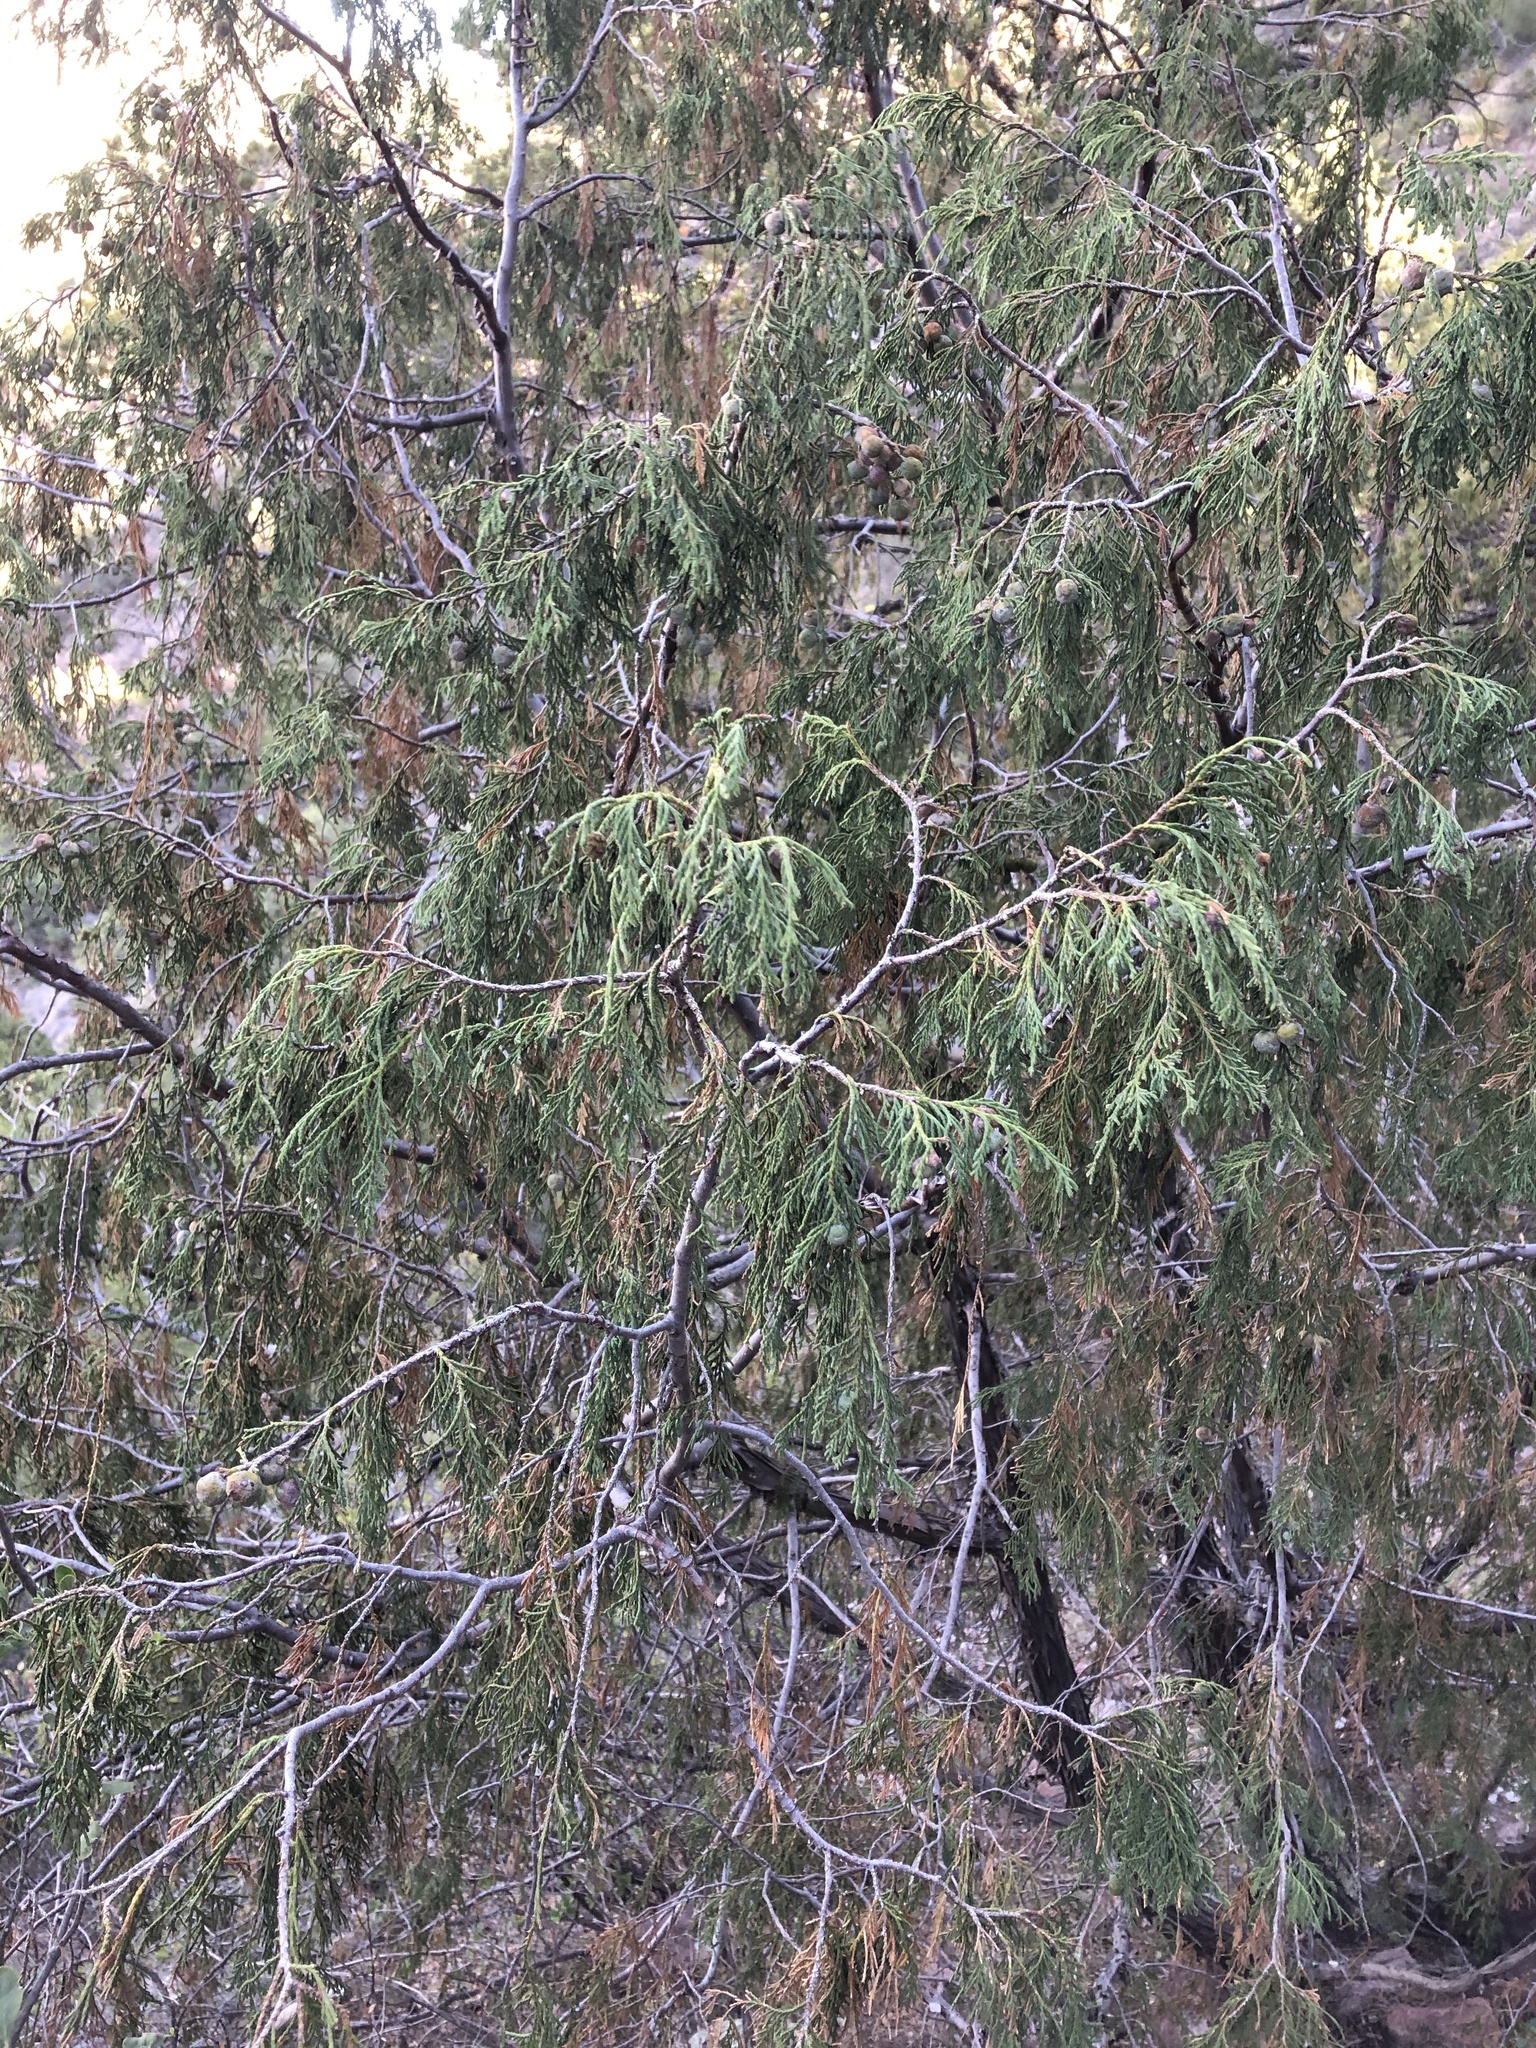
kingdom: Plantae
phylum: Tracheophyta
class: Pinopsida
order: Pinales
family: Cupressaceae
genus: Juniperus
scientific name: Juniperus flaccida
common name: Drooping juniper
